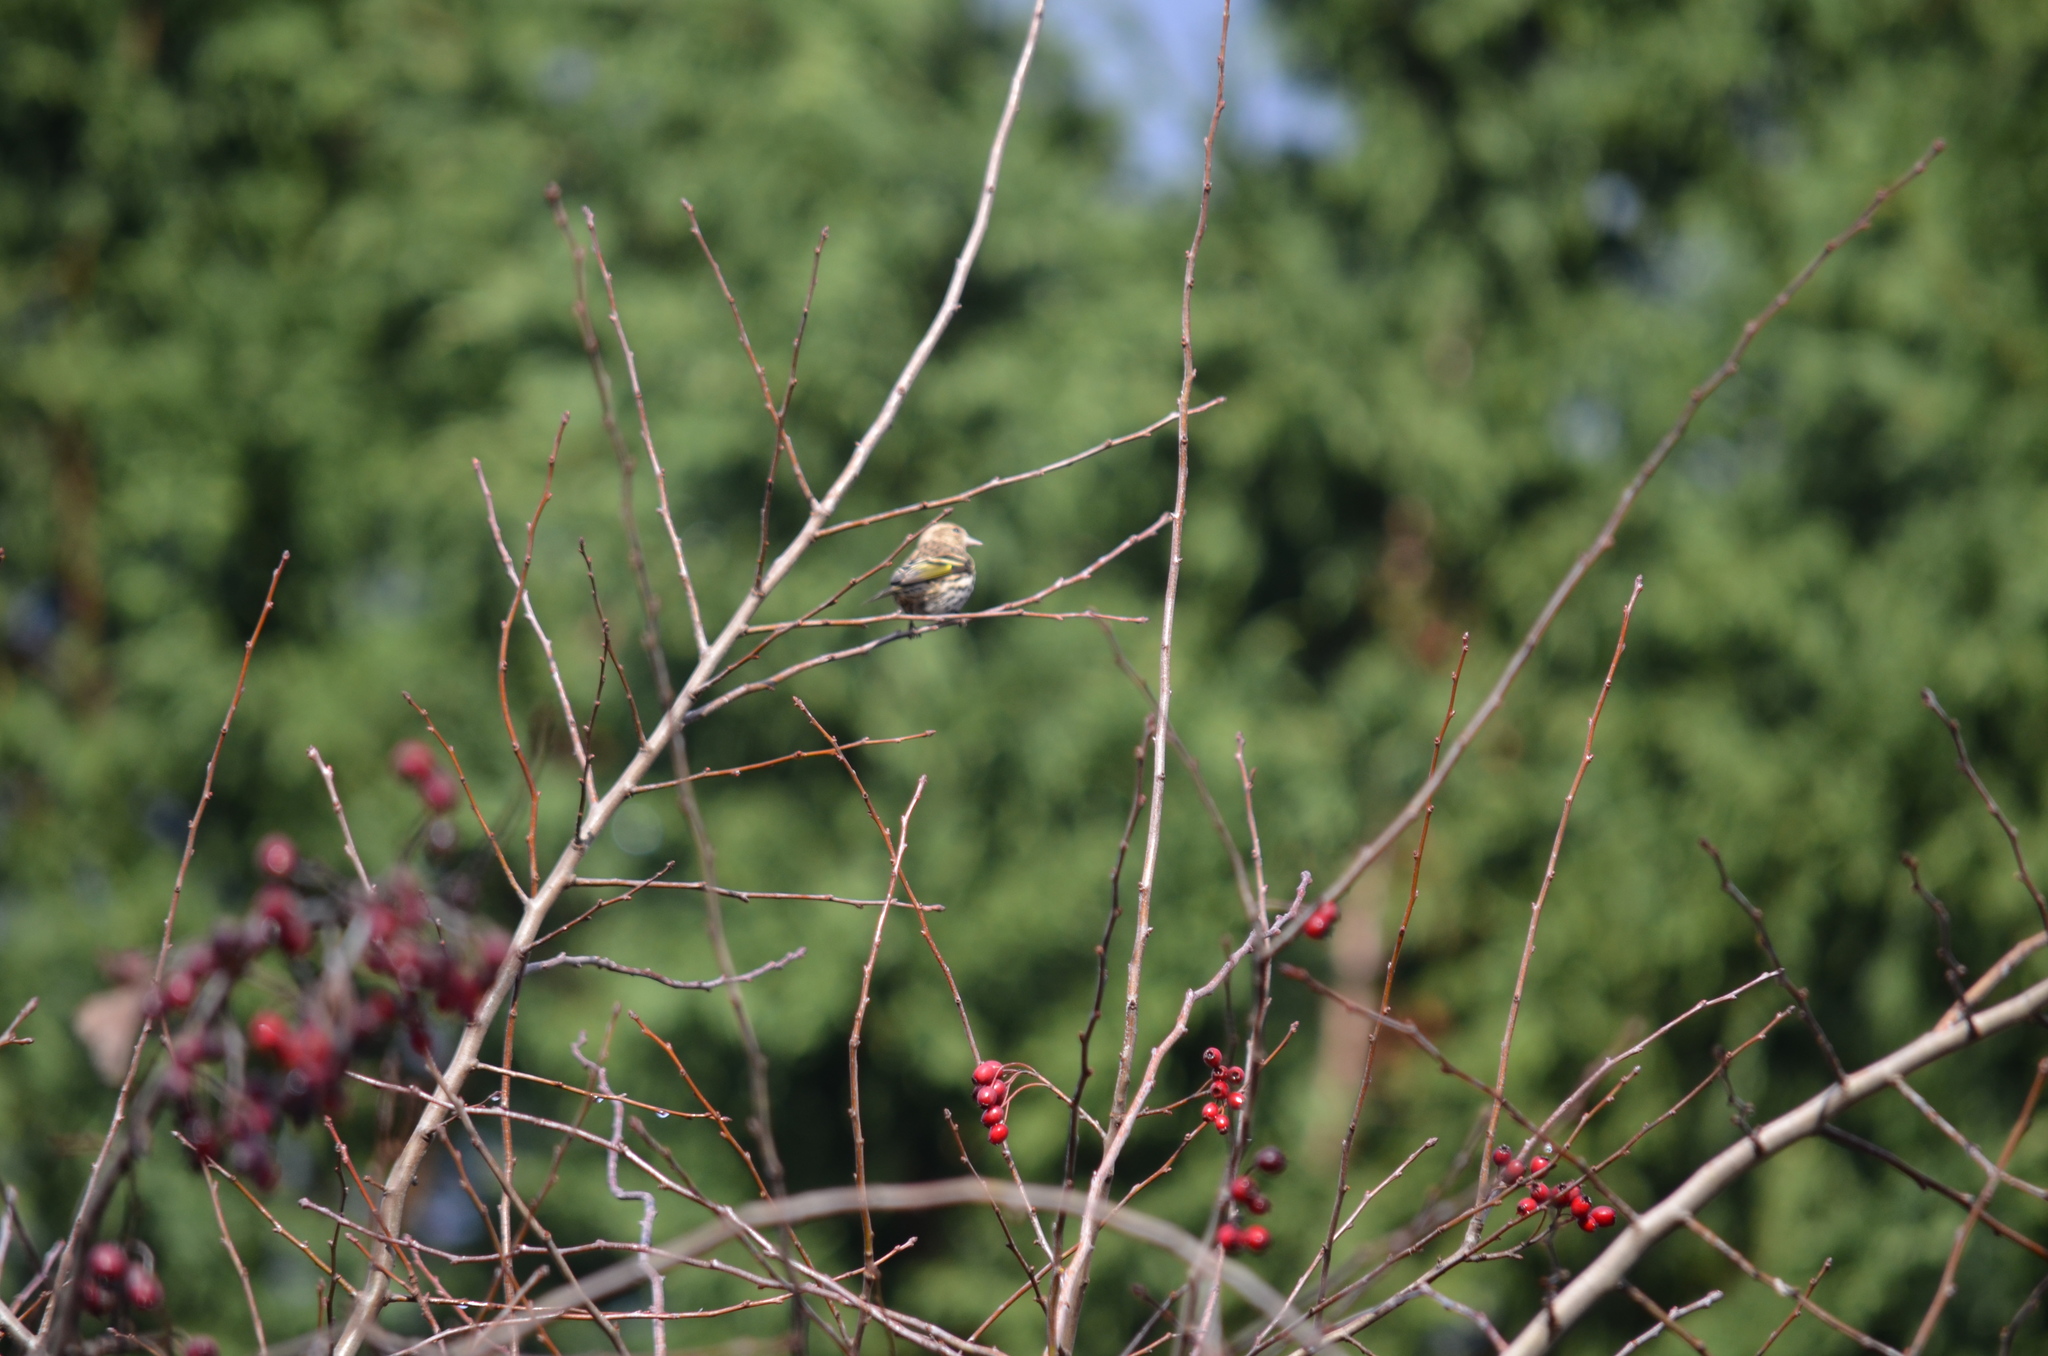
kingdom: Animalia
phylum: Chordata
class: Aves
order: Passeriformes
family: Fringillidae
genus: Spinus
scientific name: Spinus pinus
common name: Pine siskin
